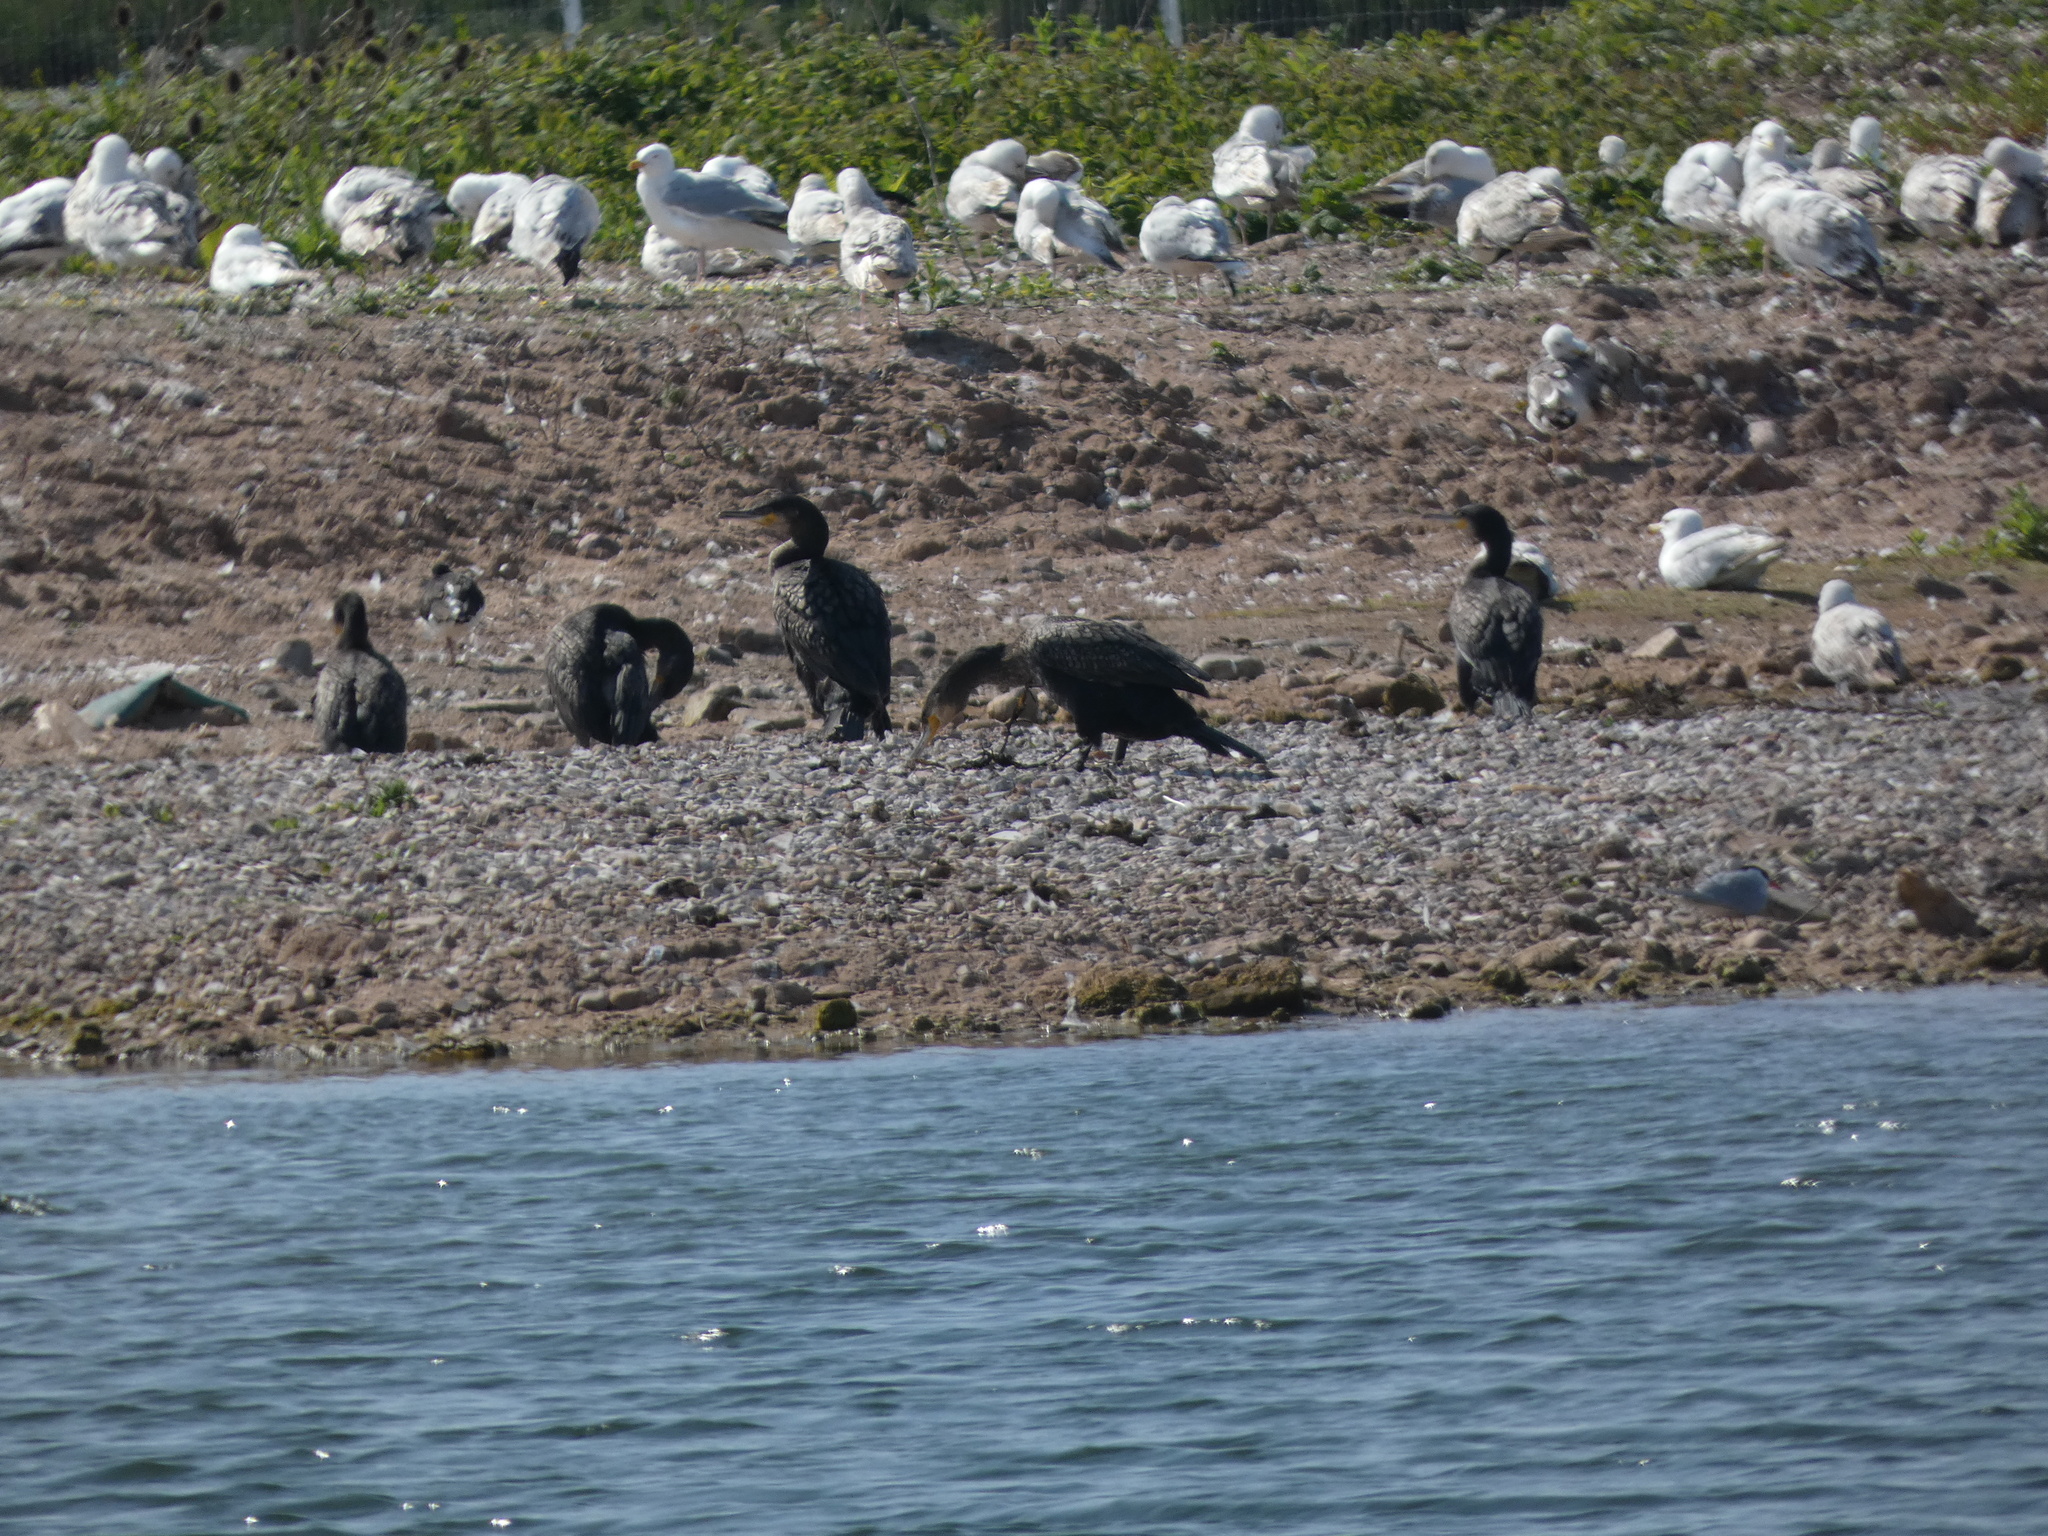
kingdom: Animalia
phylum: Chordata
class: Aves
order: Suliformes
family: Phalacrocoracidae
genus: Phalacrocorax
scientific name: Phalacrocorax carbo
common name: Great cormorant
